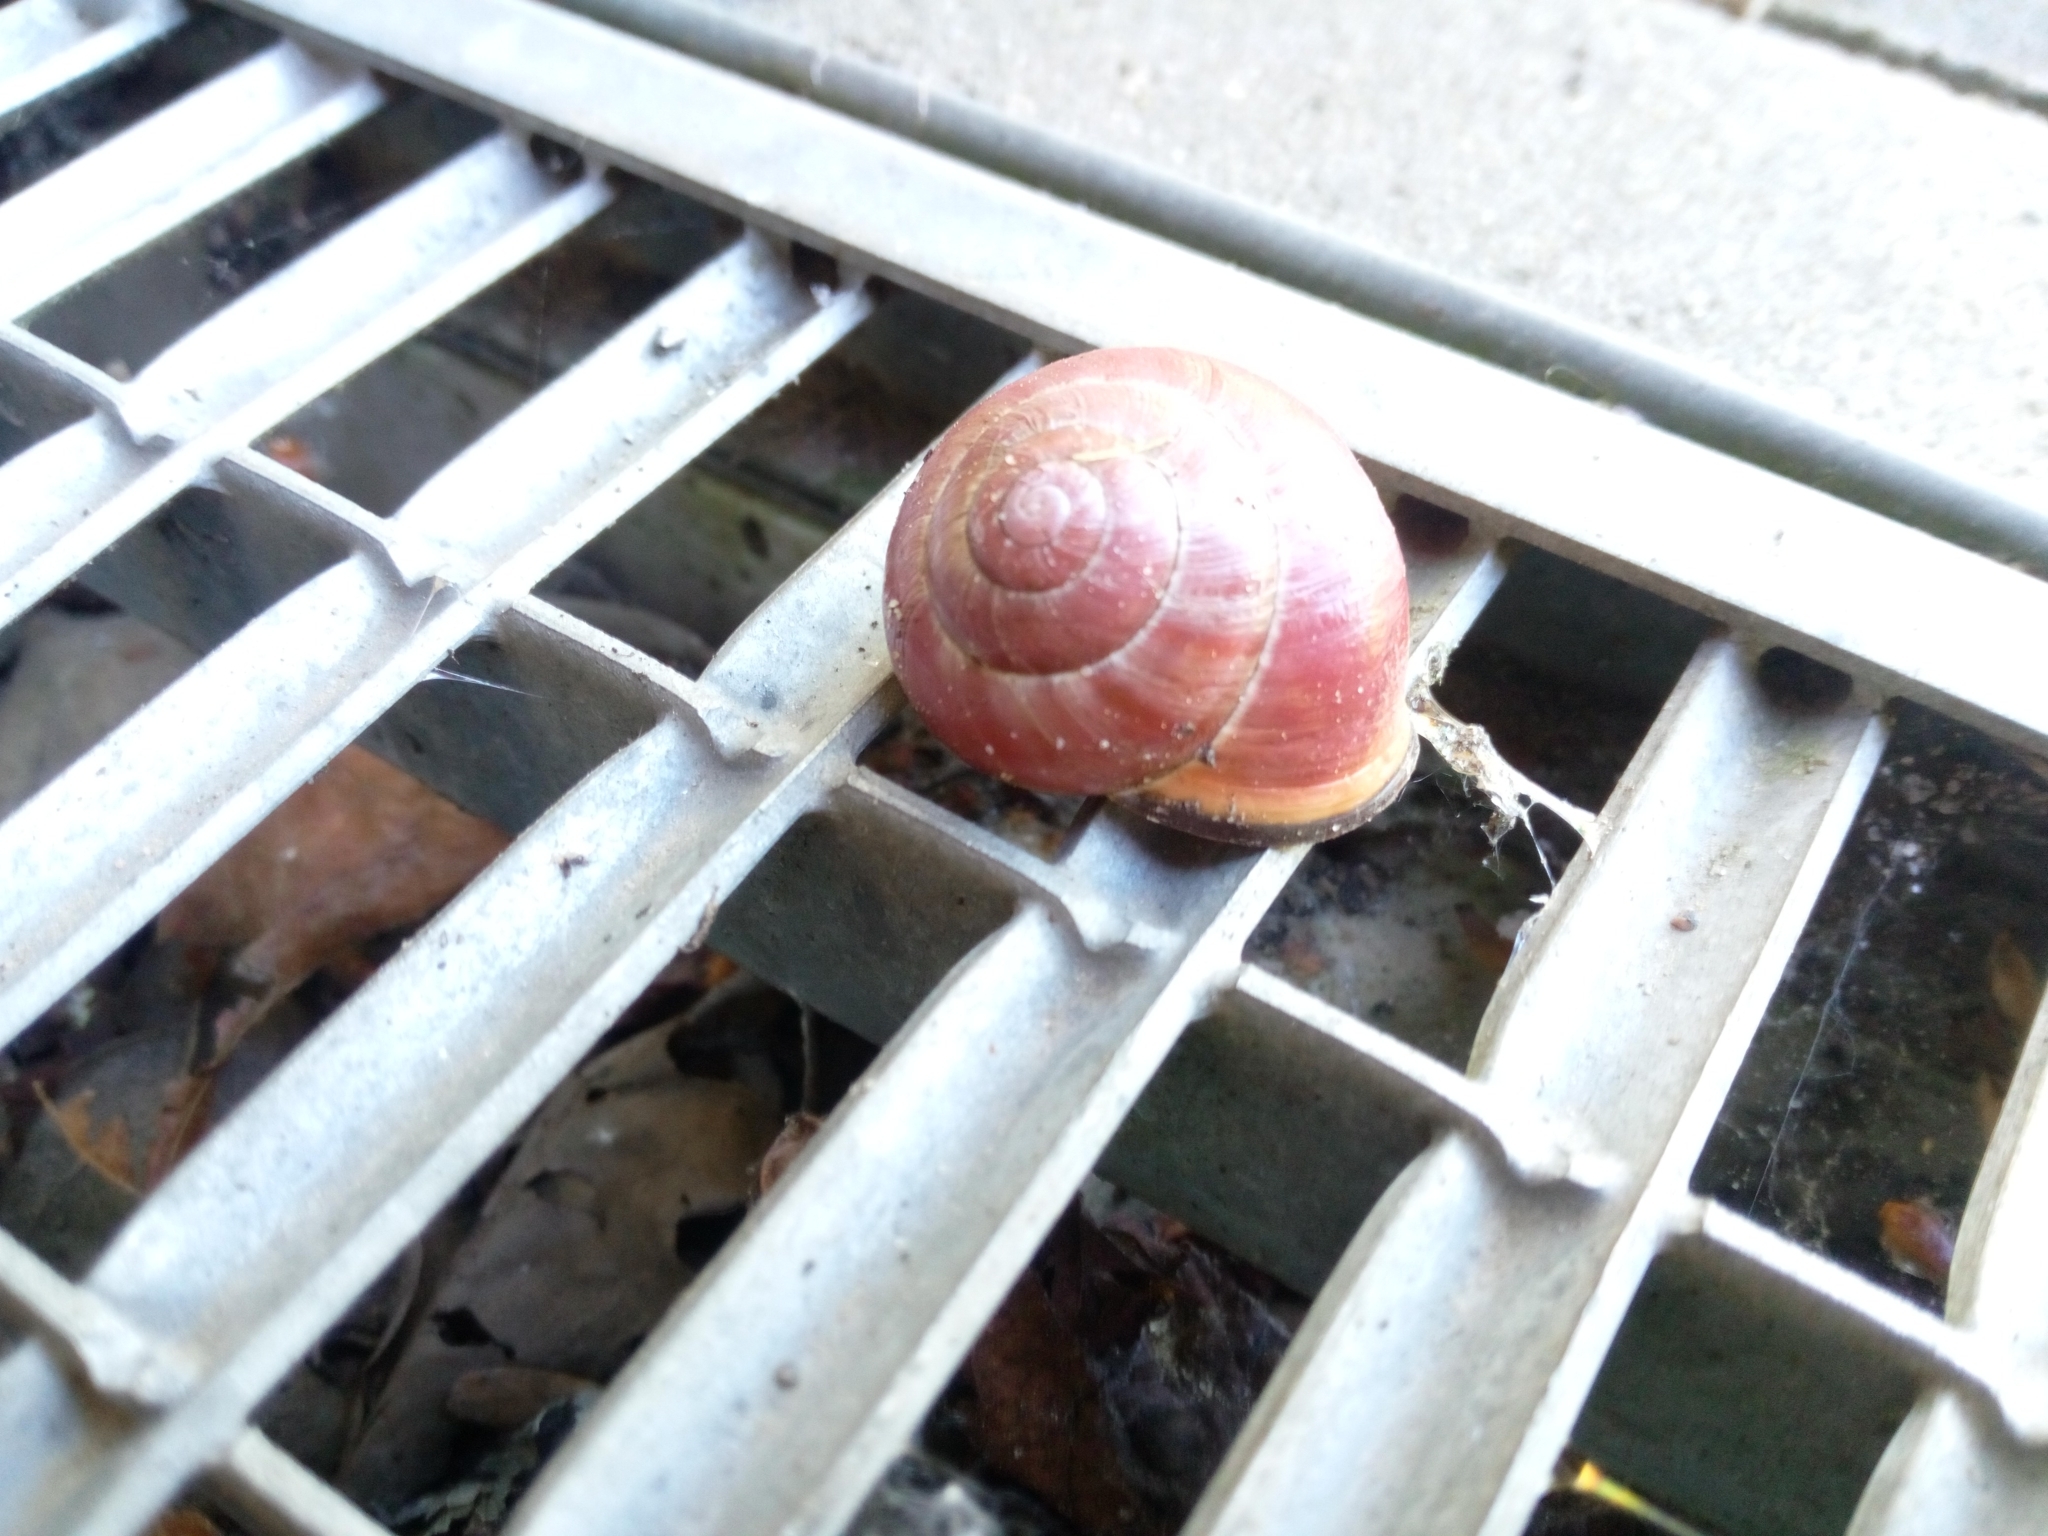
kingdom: Animalia
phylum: Mollusca
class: Gastropoda
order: Stylommatophora
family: Helicidae
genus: Cepaea
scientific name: Cepaea nemoralis
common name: Grovesnail
